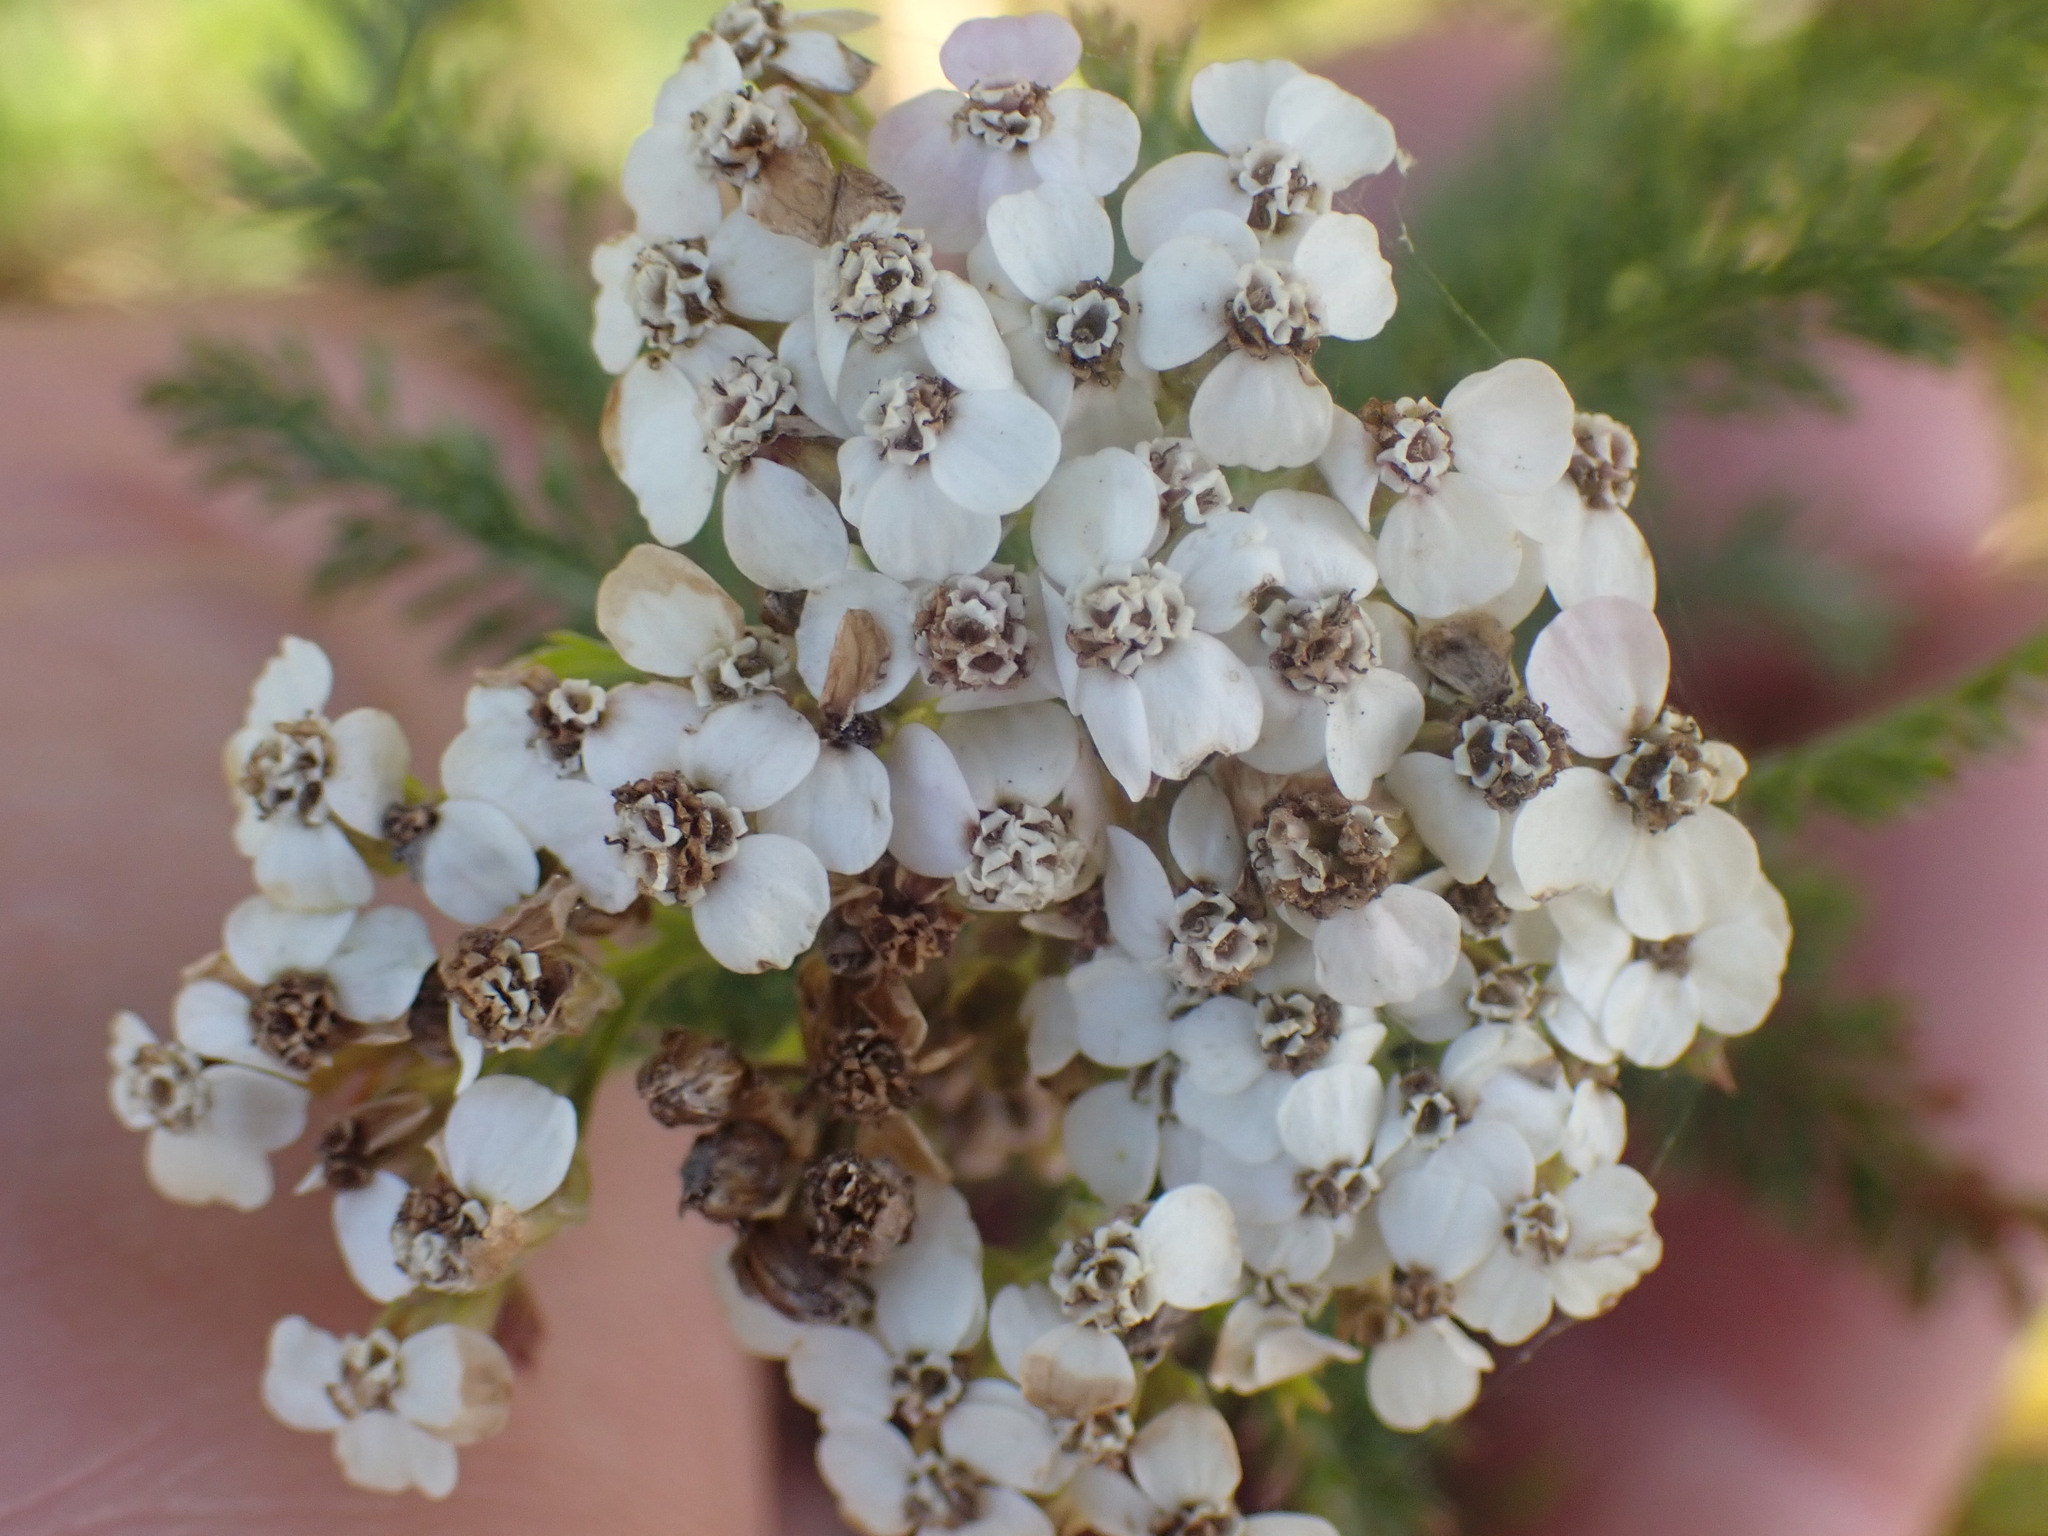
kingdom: Plantae
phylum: Tracheophyta
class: Magnoliopsida
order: Asterales
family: Asteraceae
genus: Achillea
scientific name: Achillea millefolium
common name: Yarrow
